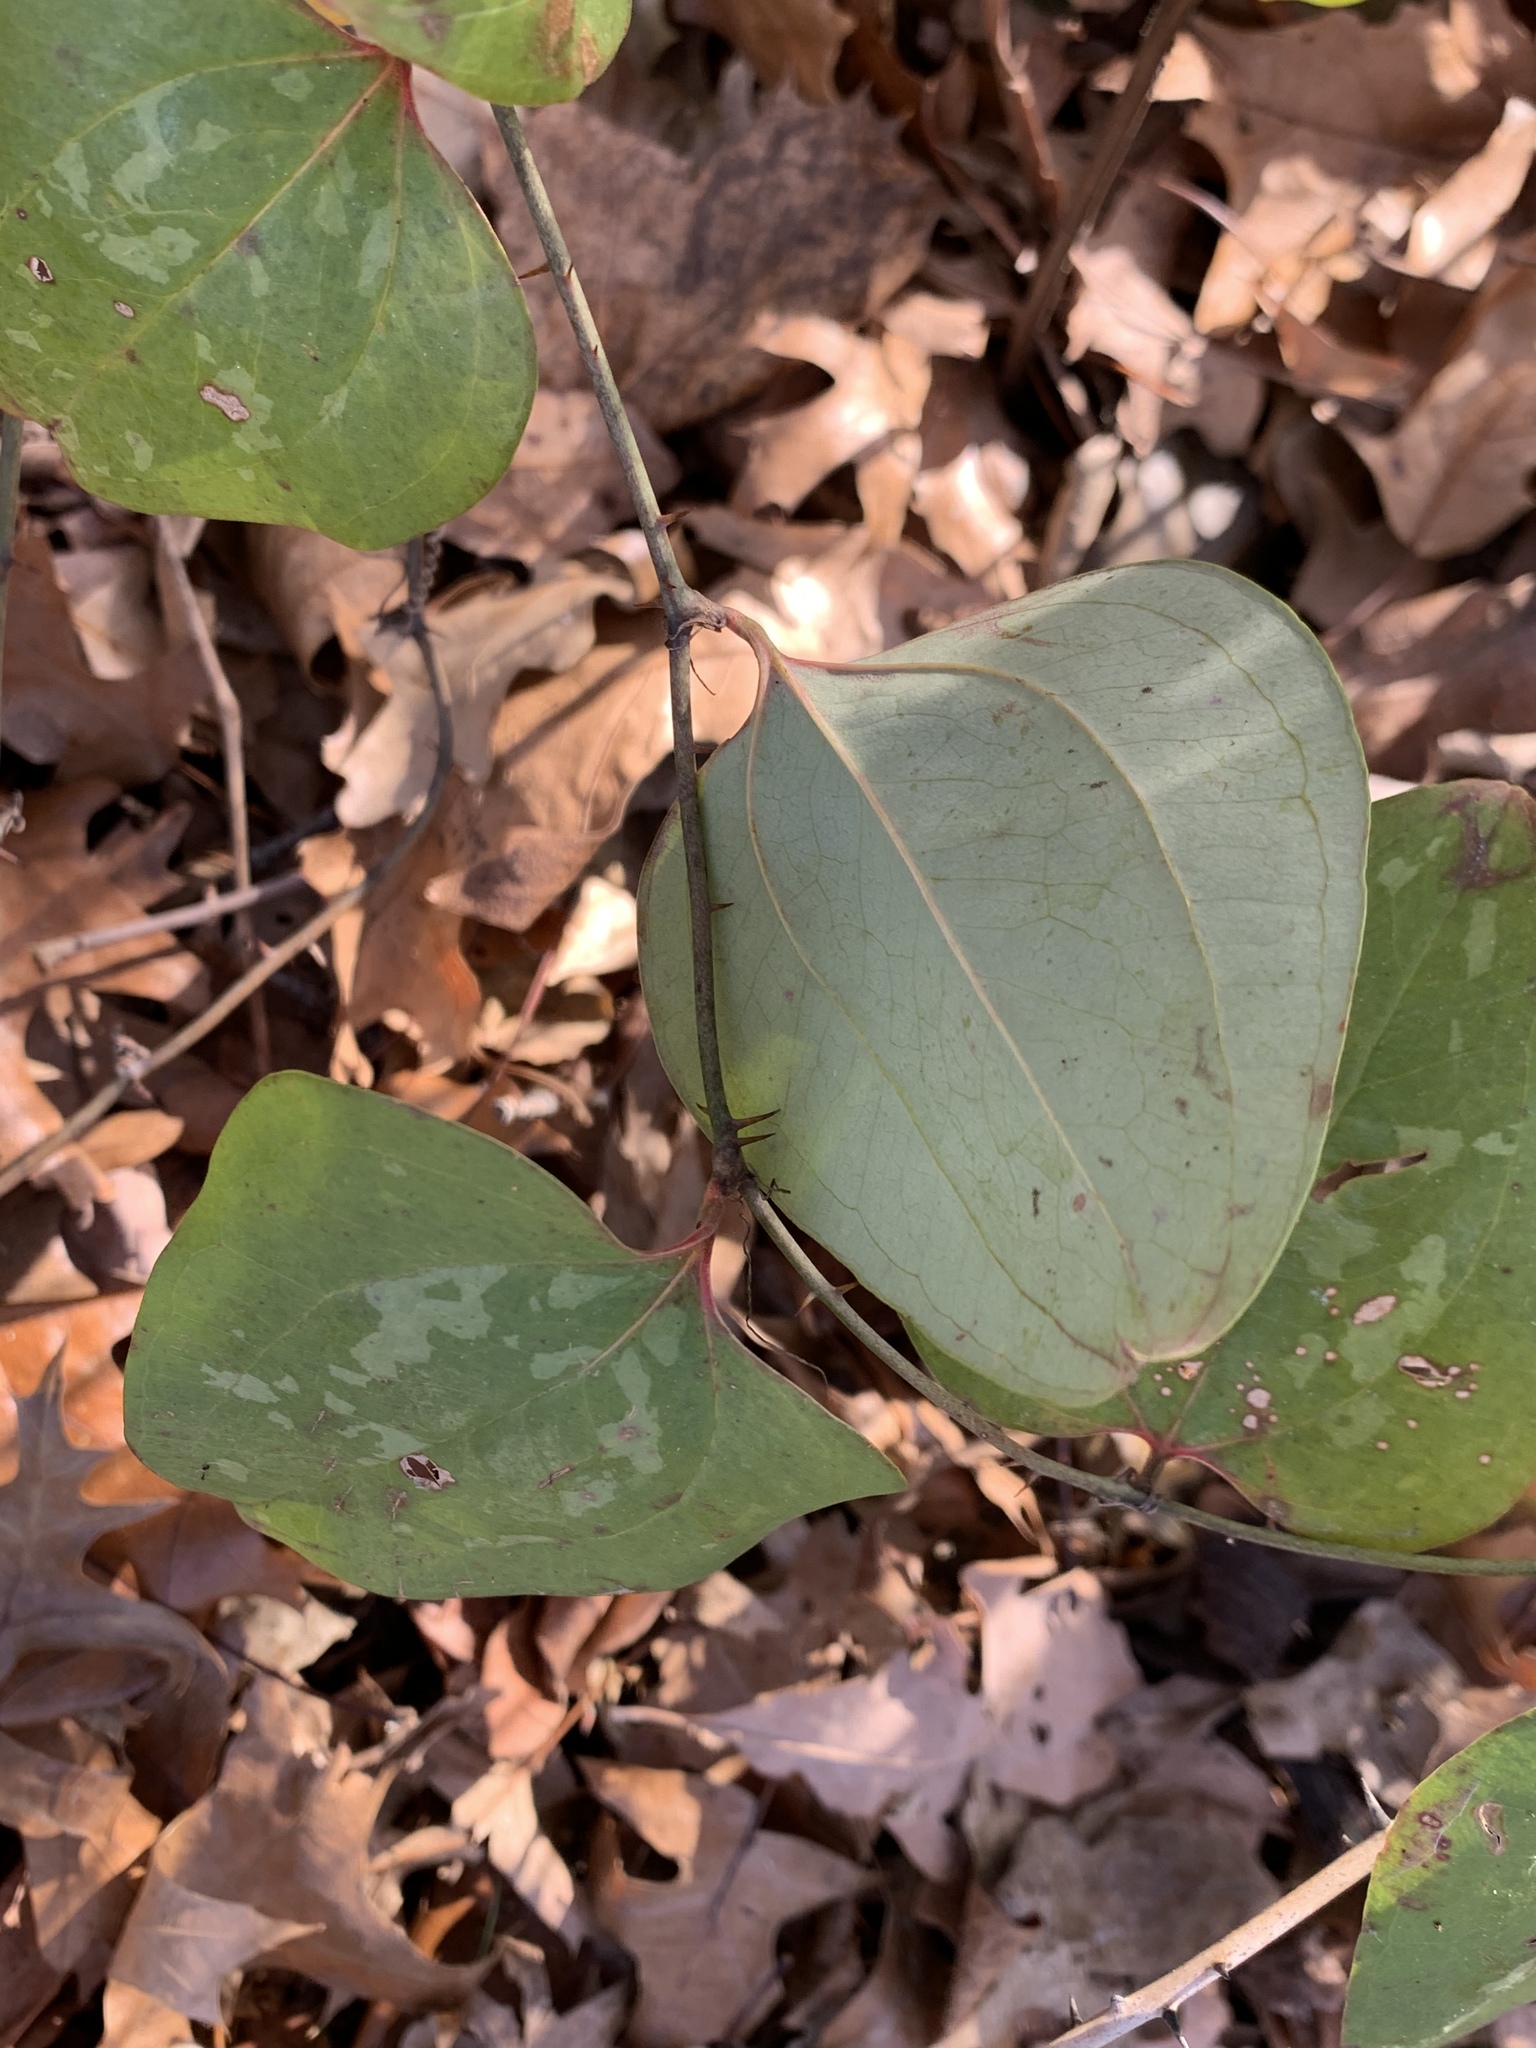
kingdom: Plantae
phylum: Tracheophyta
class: Liliopsida
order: Liliales
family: Smilacaceae
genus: Smilax
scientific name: Smilax glauca
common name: Cat greenbrier
